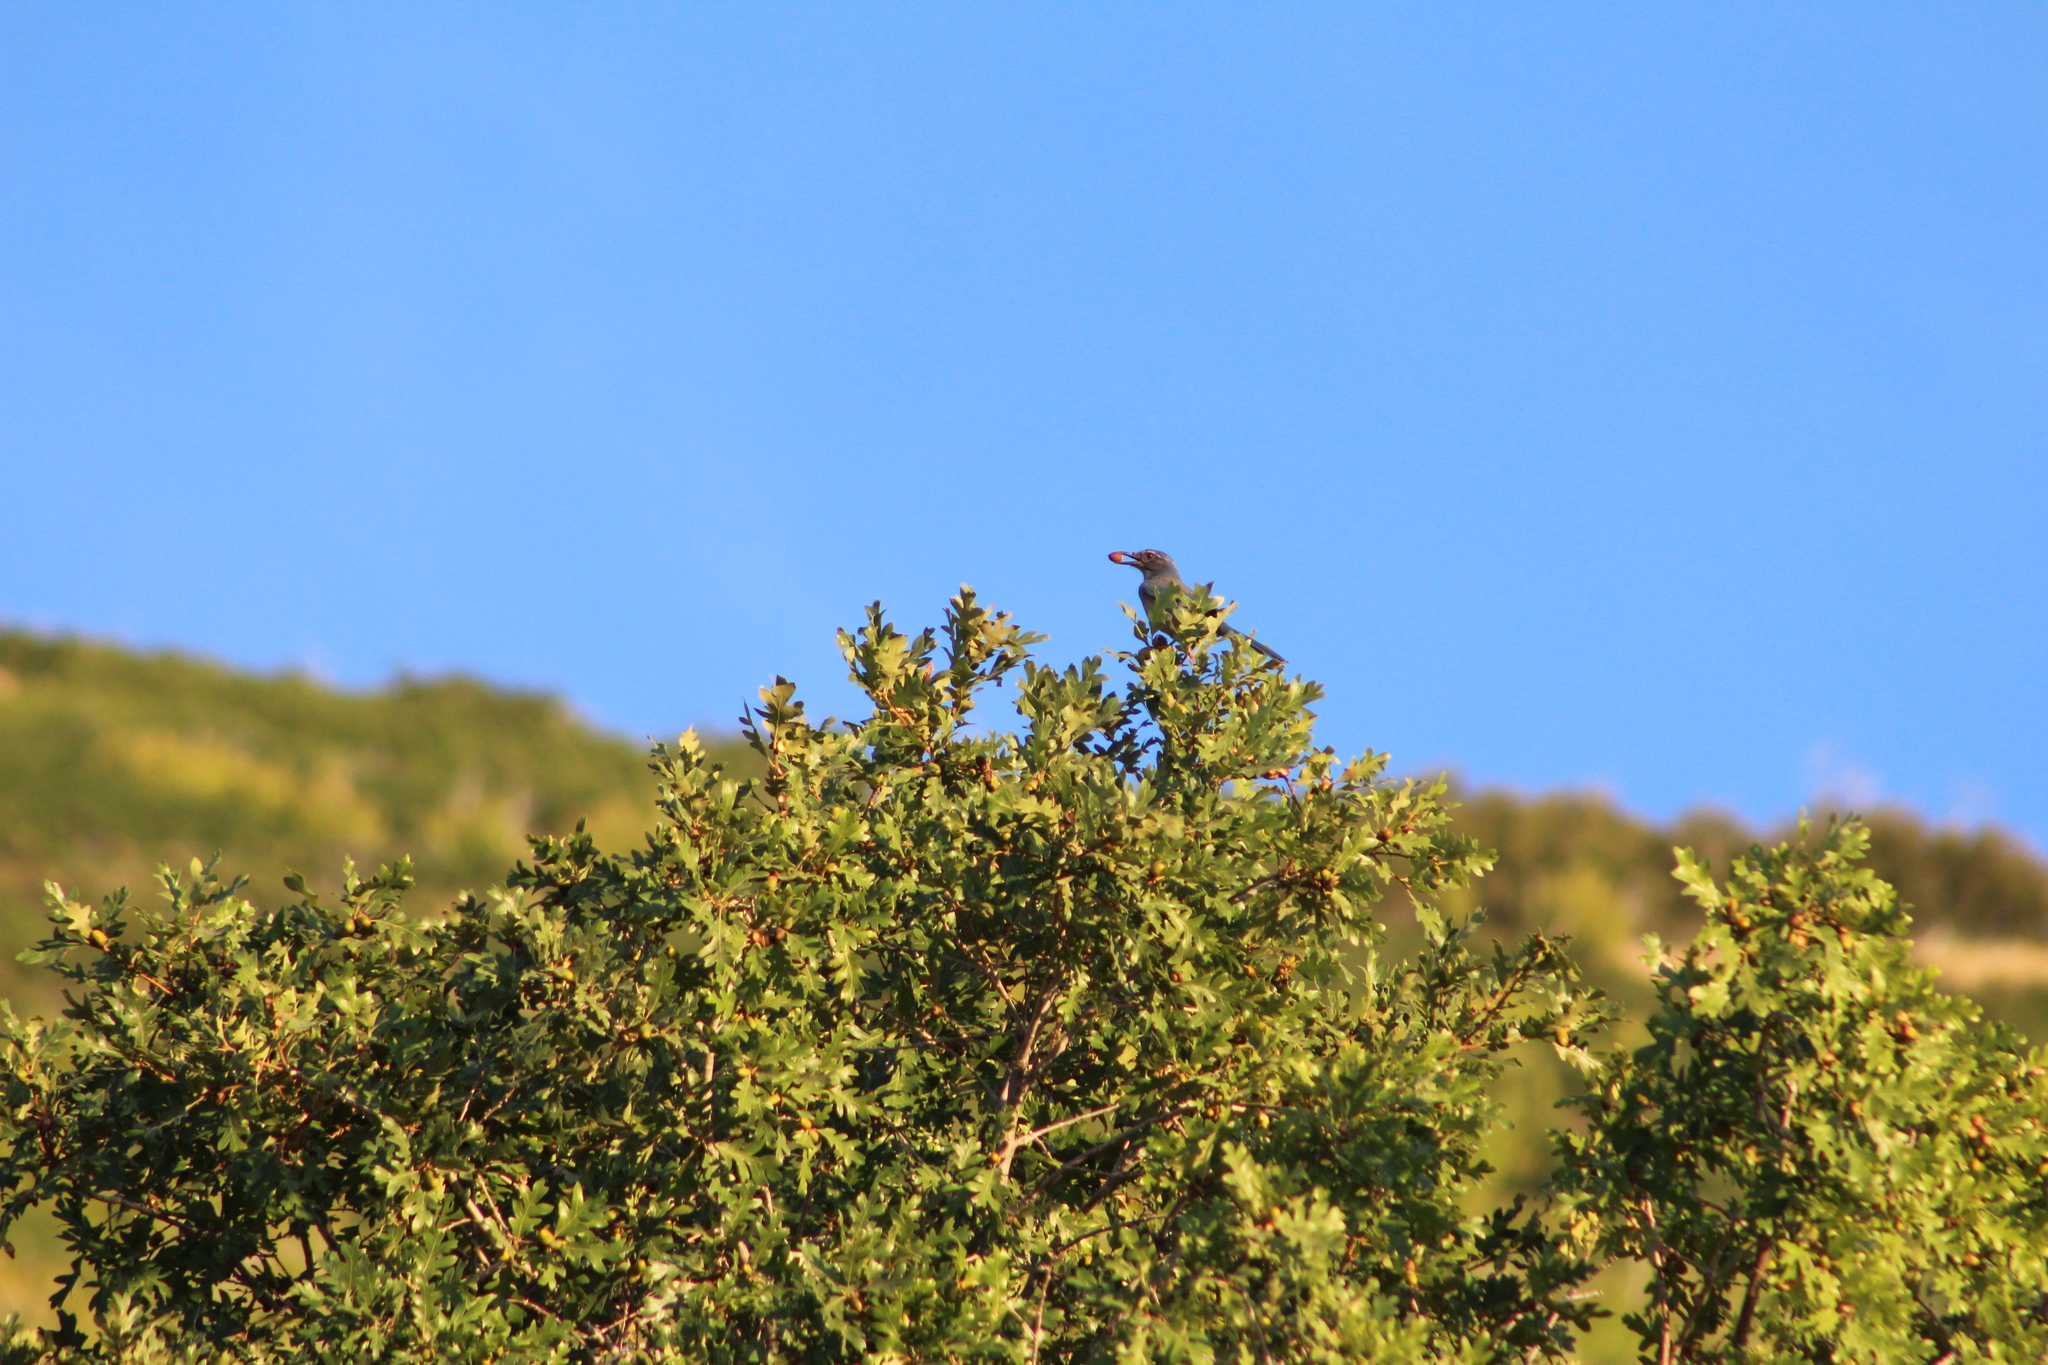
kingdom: Animalia
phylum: Chordata
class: Aves
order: Passeriformes
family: Corvidae
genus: Aphelocoma
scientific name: Aphelocoma woodhouseii
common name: Woodhouse's scrub-jay
